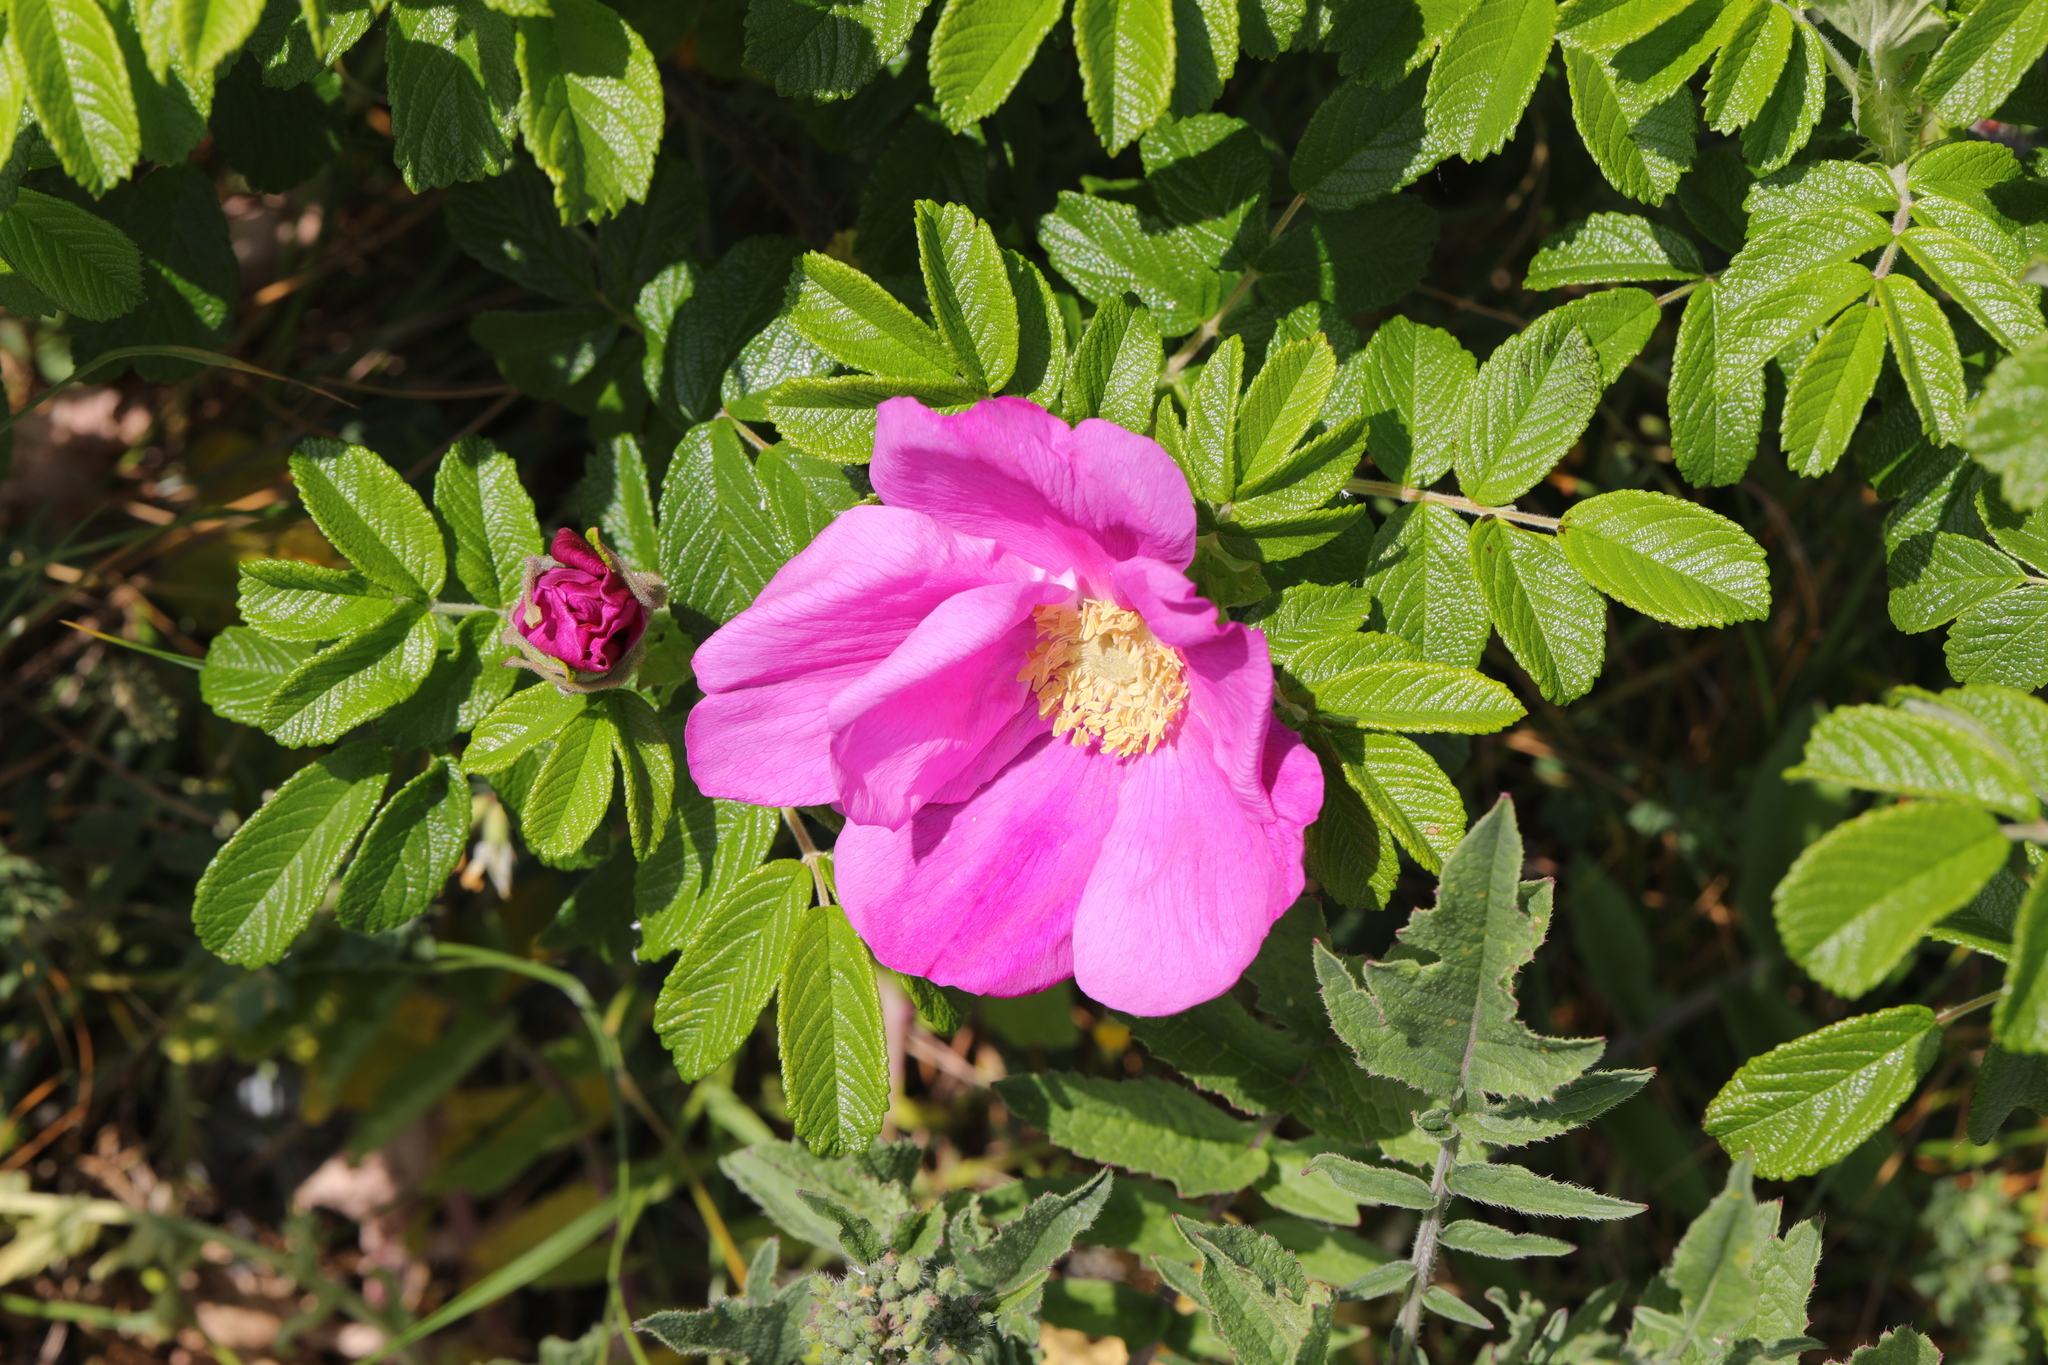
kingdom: Plantae
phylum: Tracheophyta
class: Magnoliopsida
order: Rosales
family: Rosaceae
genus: Rosa
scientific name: Rosa rugosa
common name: Japanese rose
